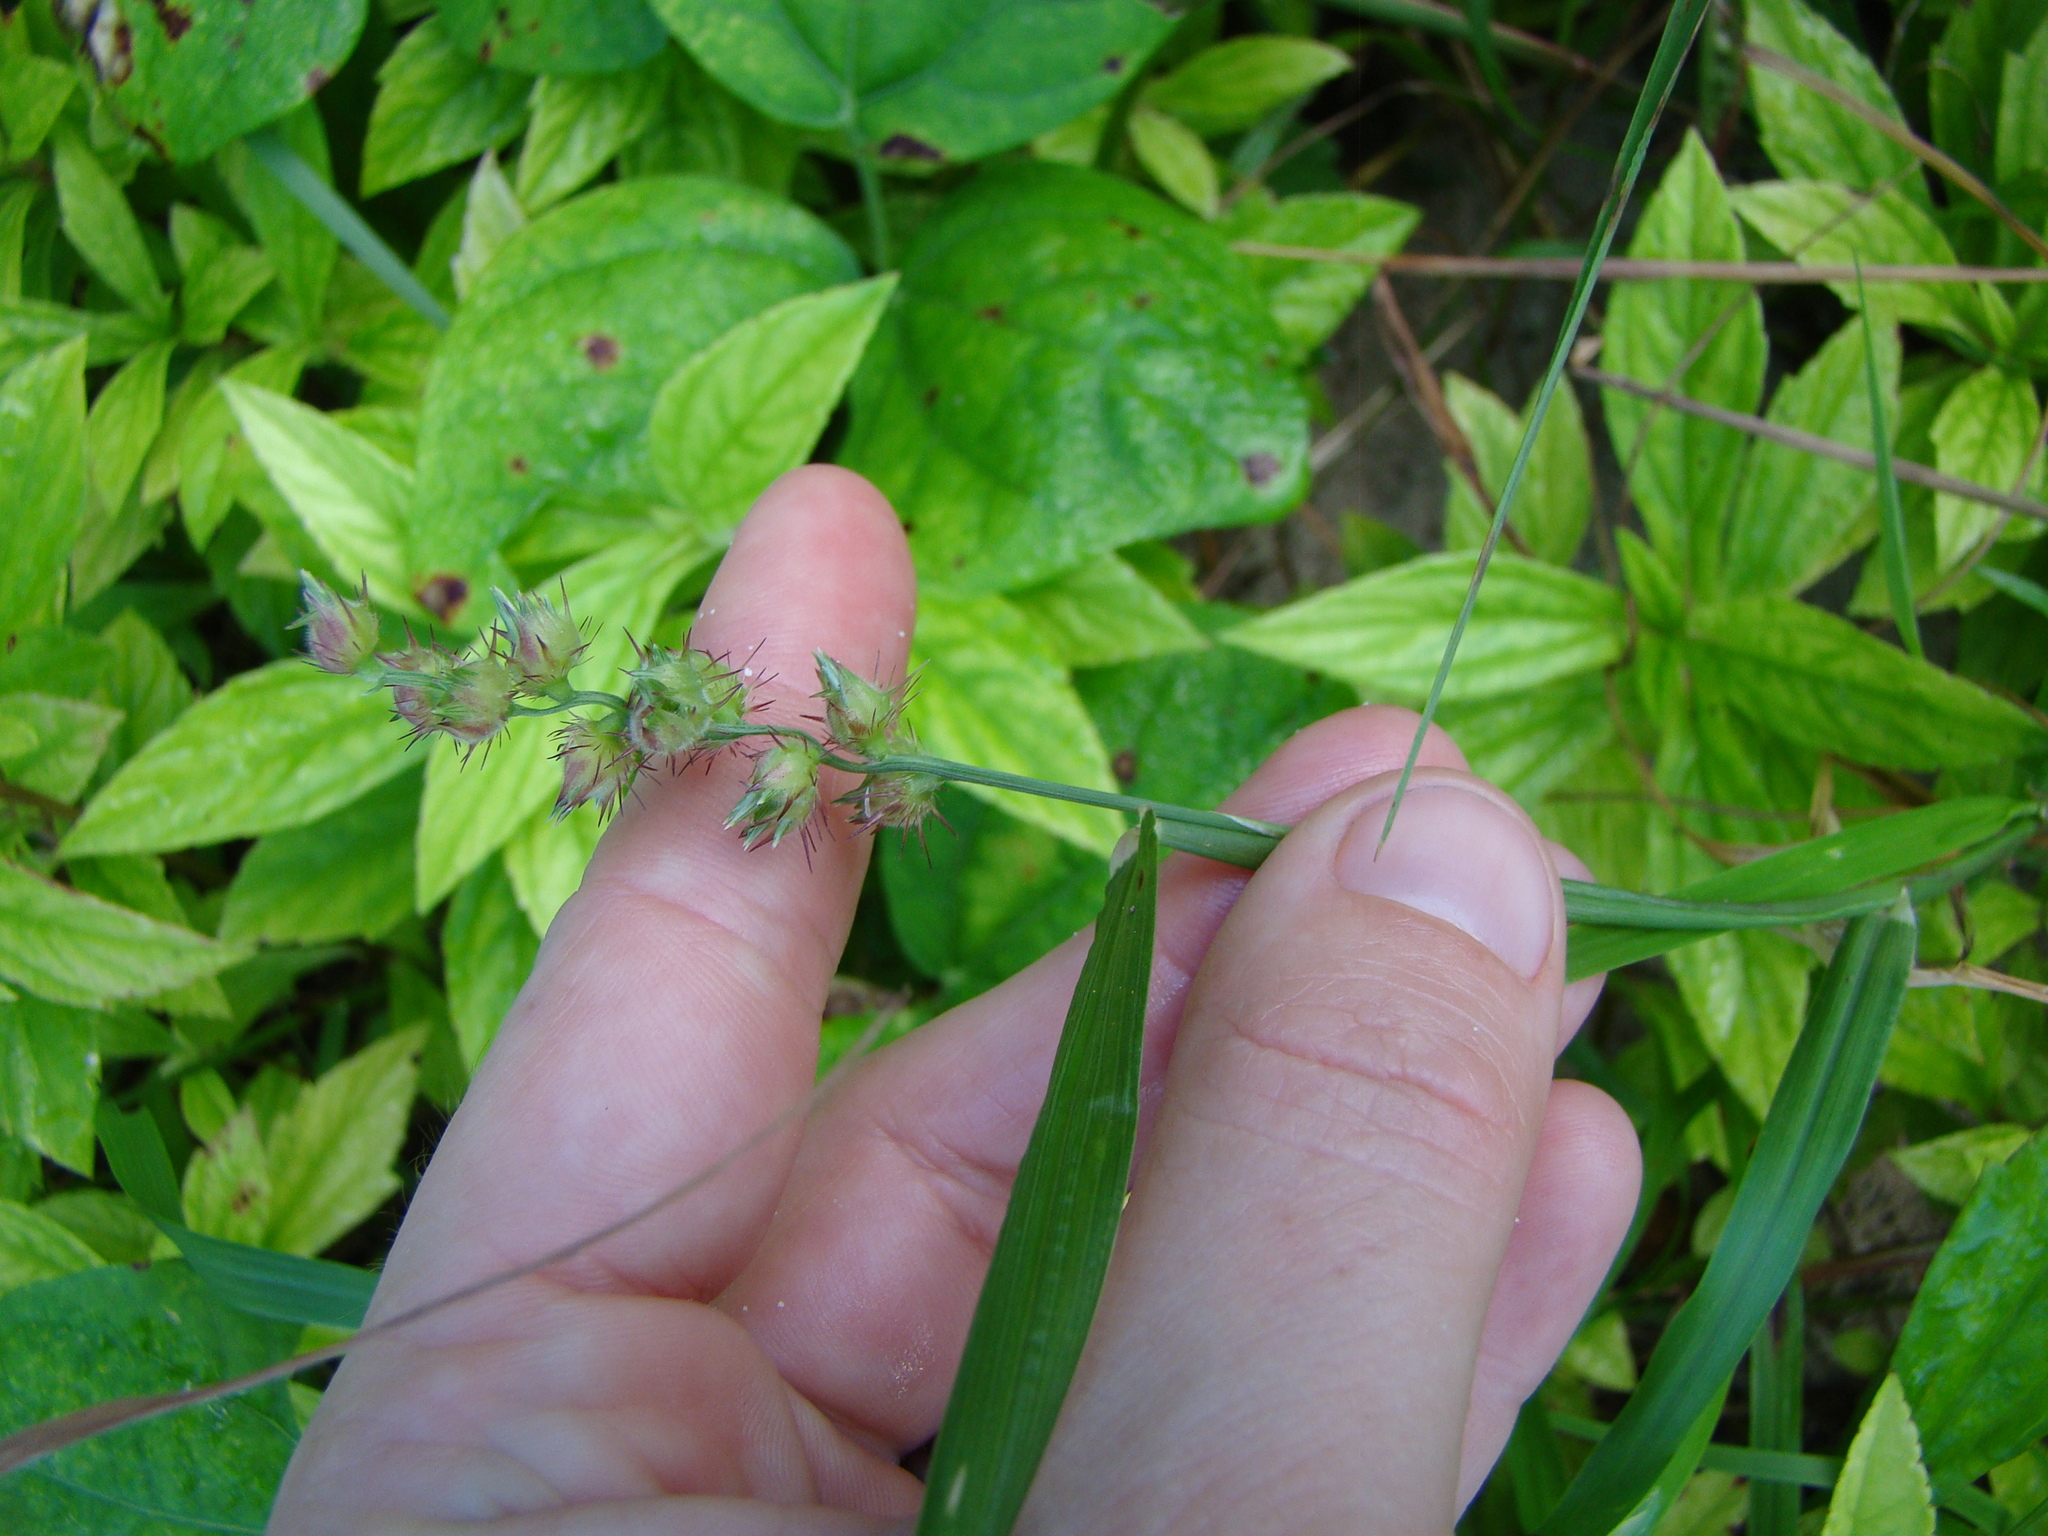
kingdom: Plantae
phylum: Tracheophyta
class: Liliopsida
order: Poales
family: Poaceae
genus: Cenchrus
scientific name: Cenchrus echinatus
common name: Southern sandbur
